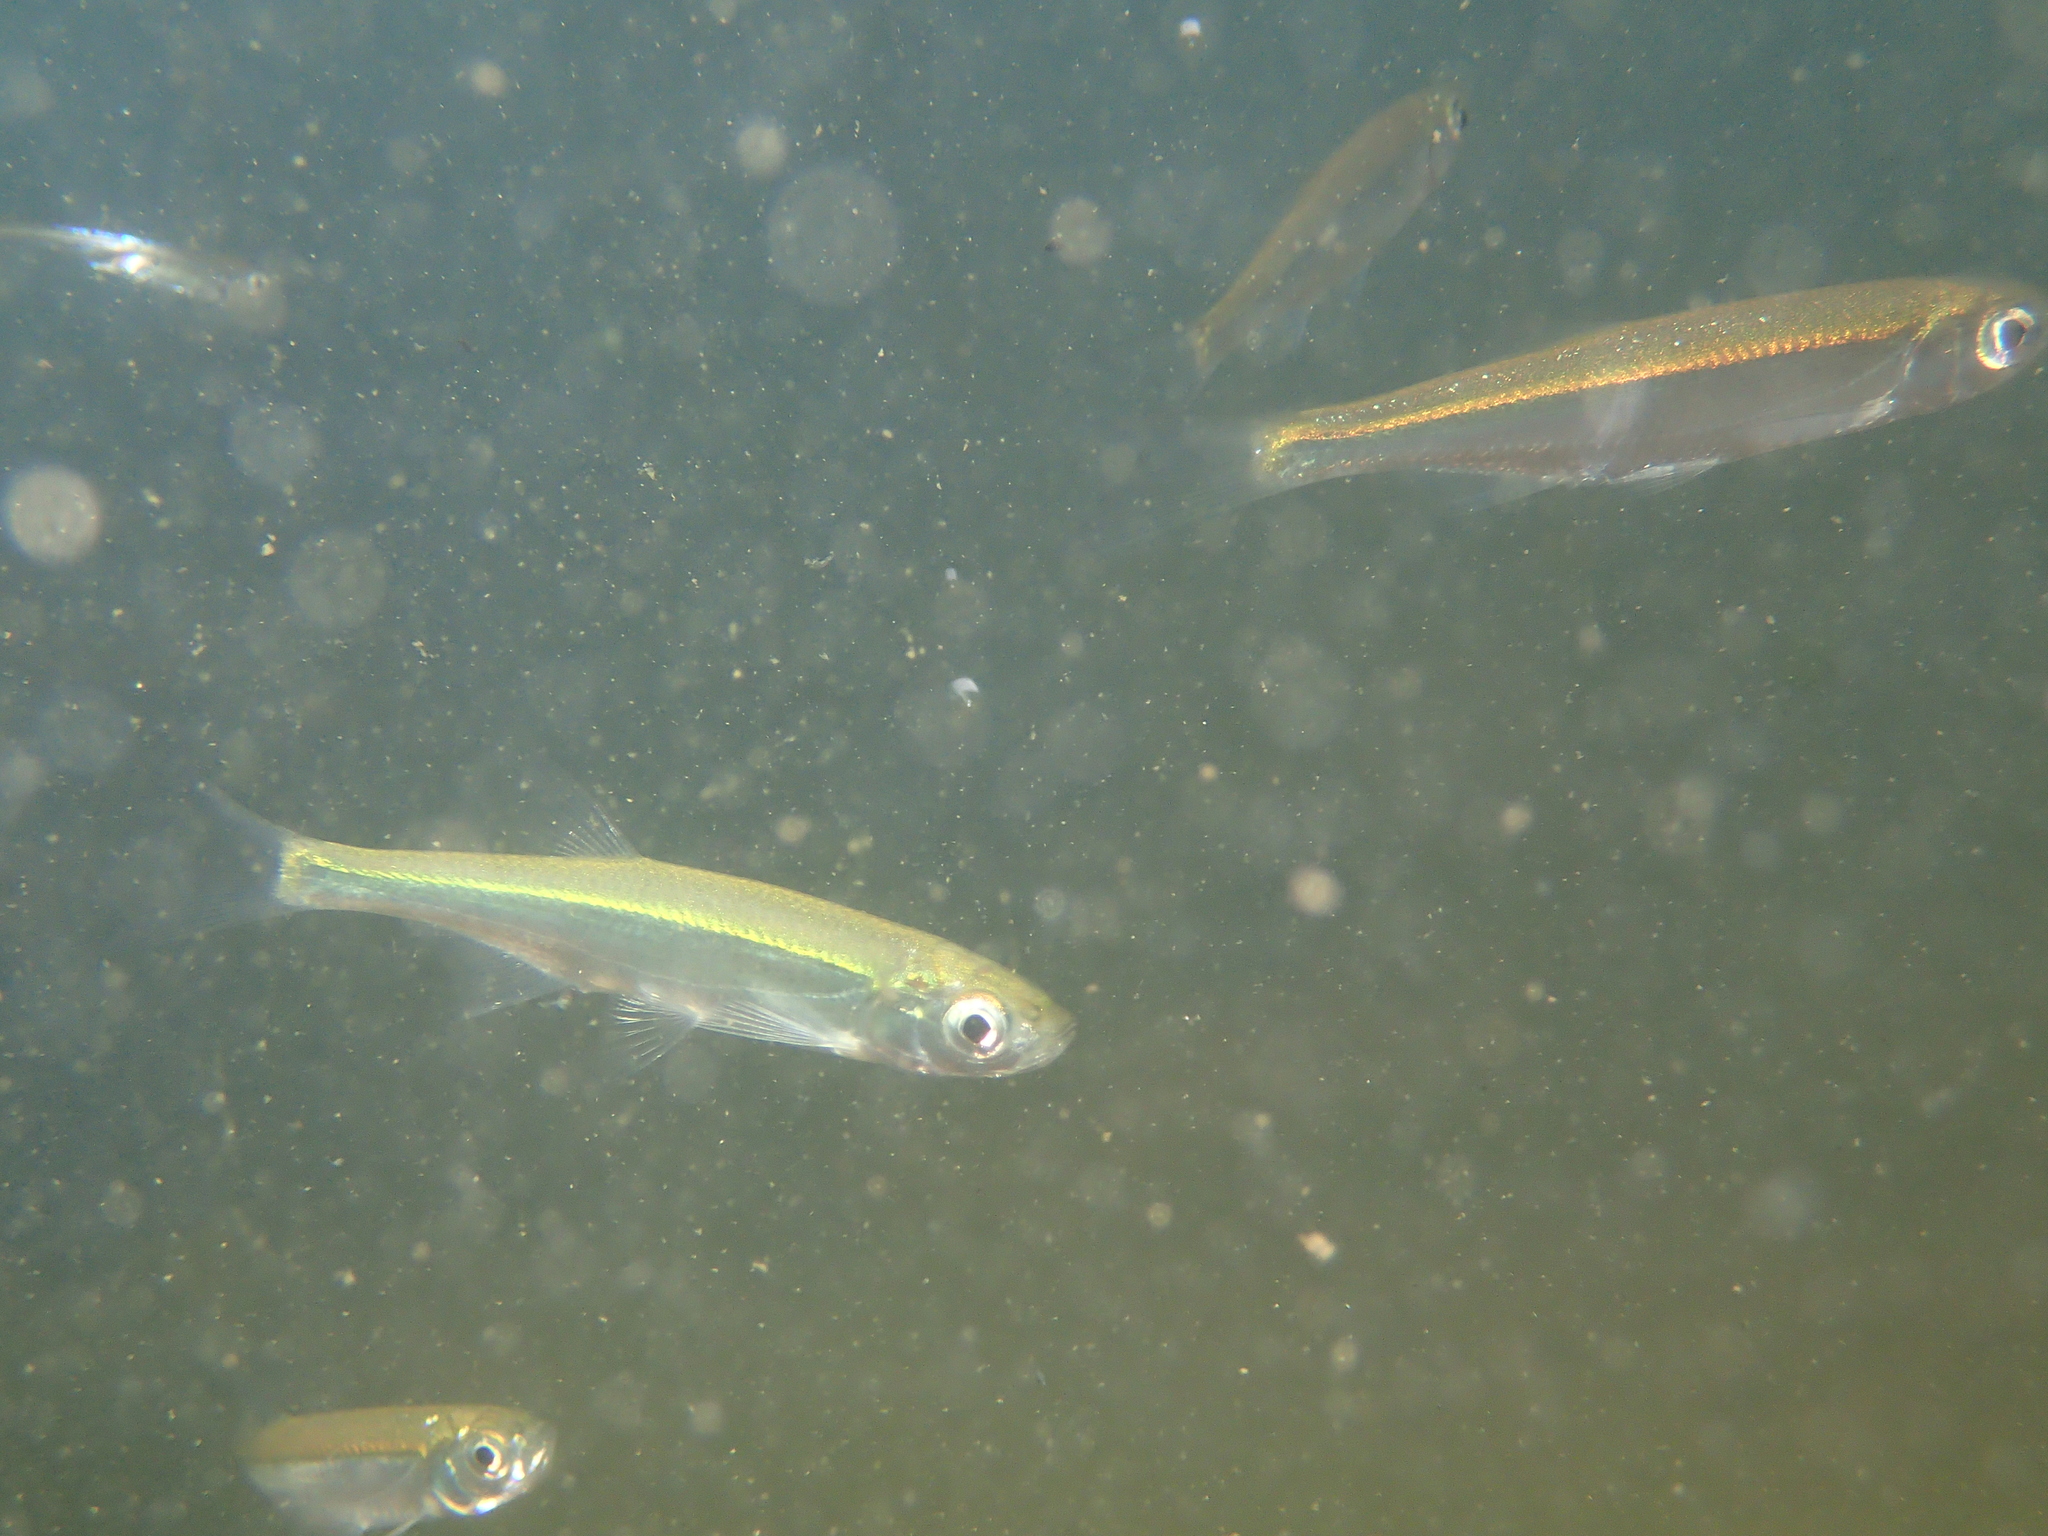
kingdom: Animalia
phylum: Chordata
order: Cypriniformes
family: Cyprinidae
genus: Alburnus
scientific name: Alburnus alburnus
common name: Bleak
